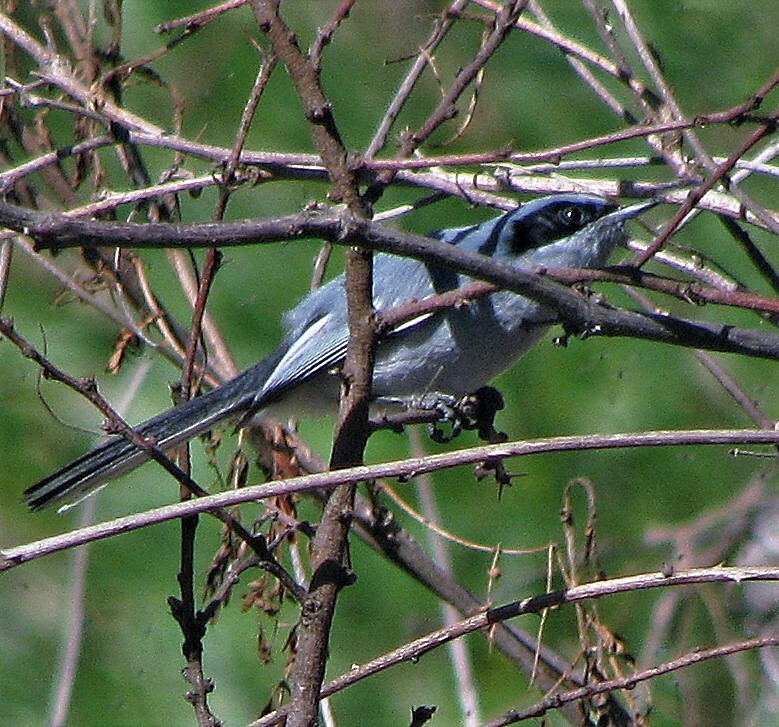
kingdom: Animalia
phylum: Chordata
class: Aves
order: Passeriformes
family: Polioptilidae
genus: Polioptila
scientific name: Polioptila dumicola
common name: Masked gnatcatcher
